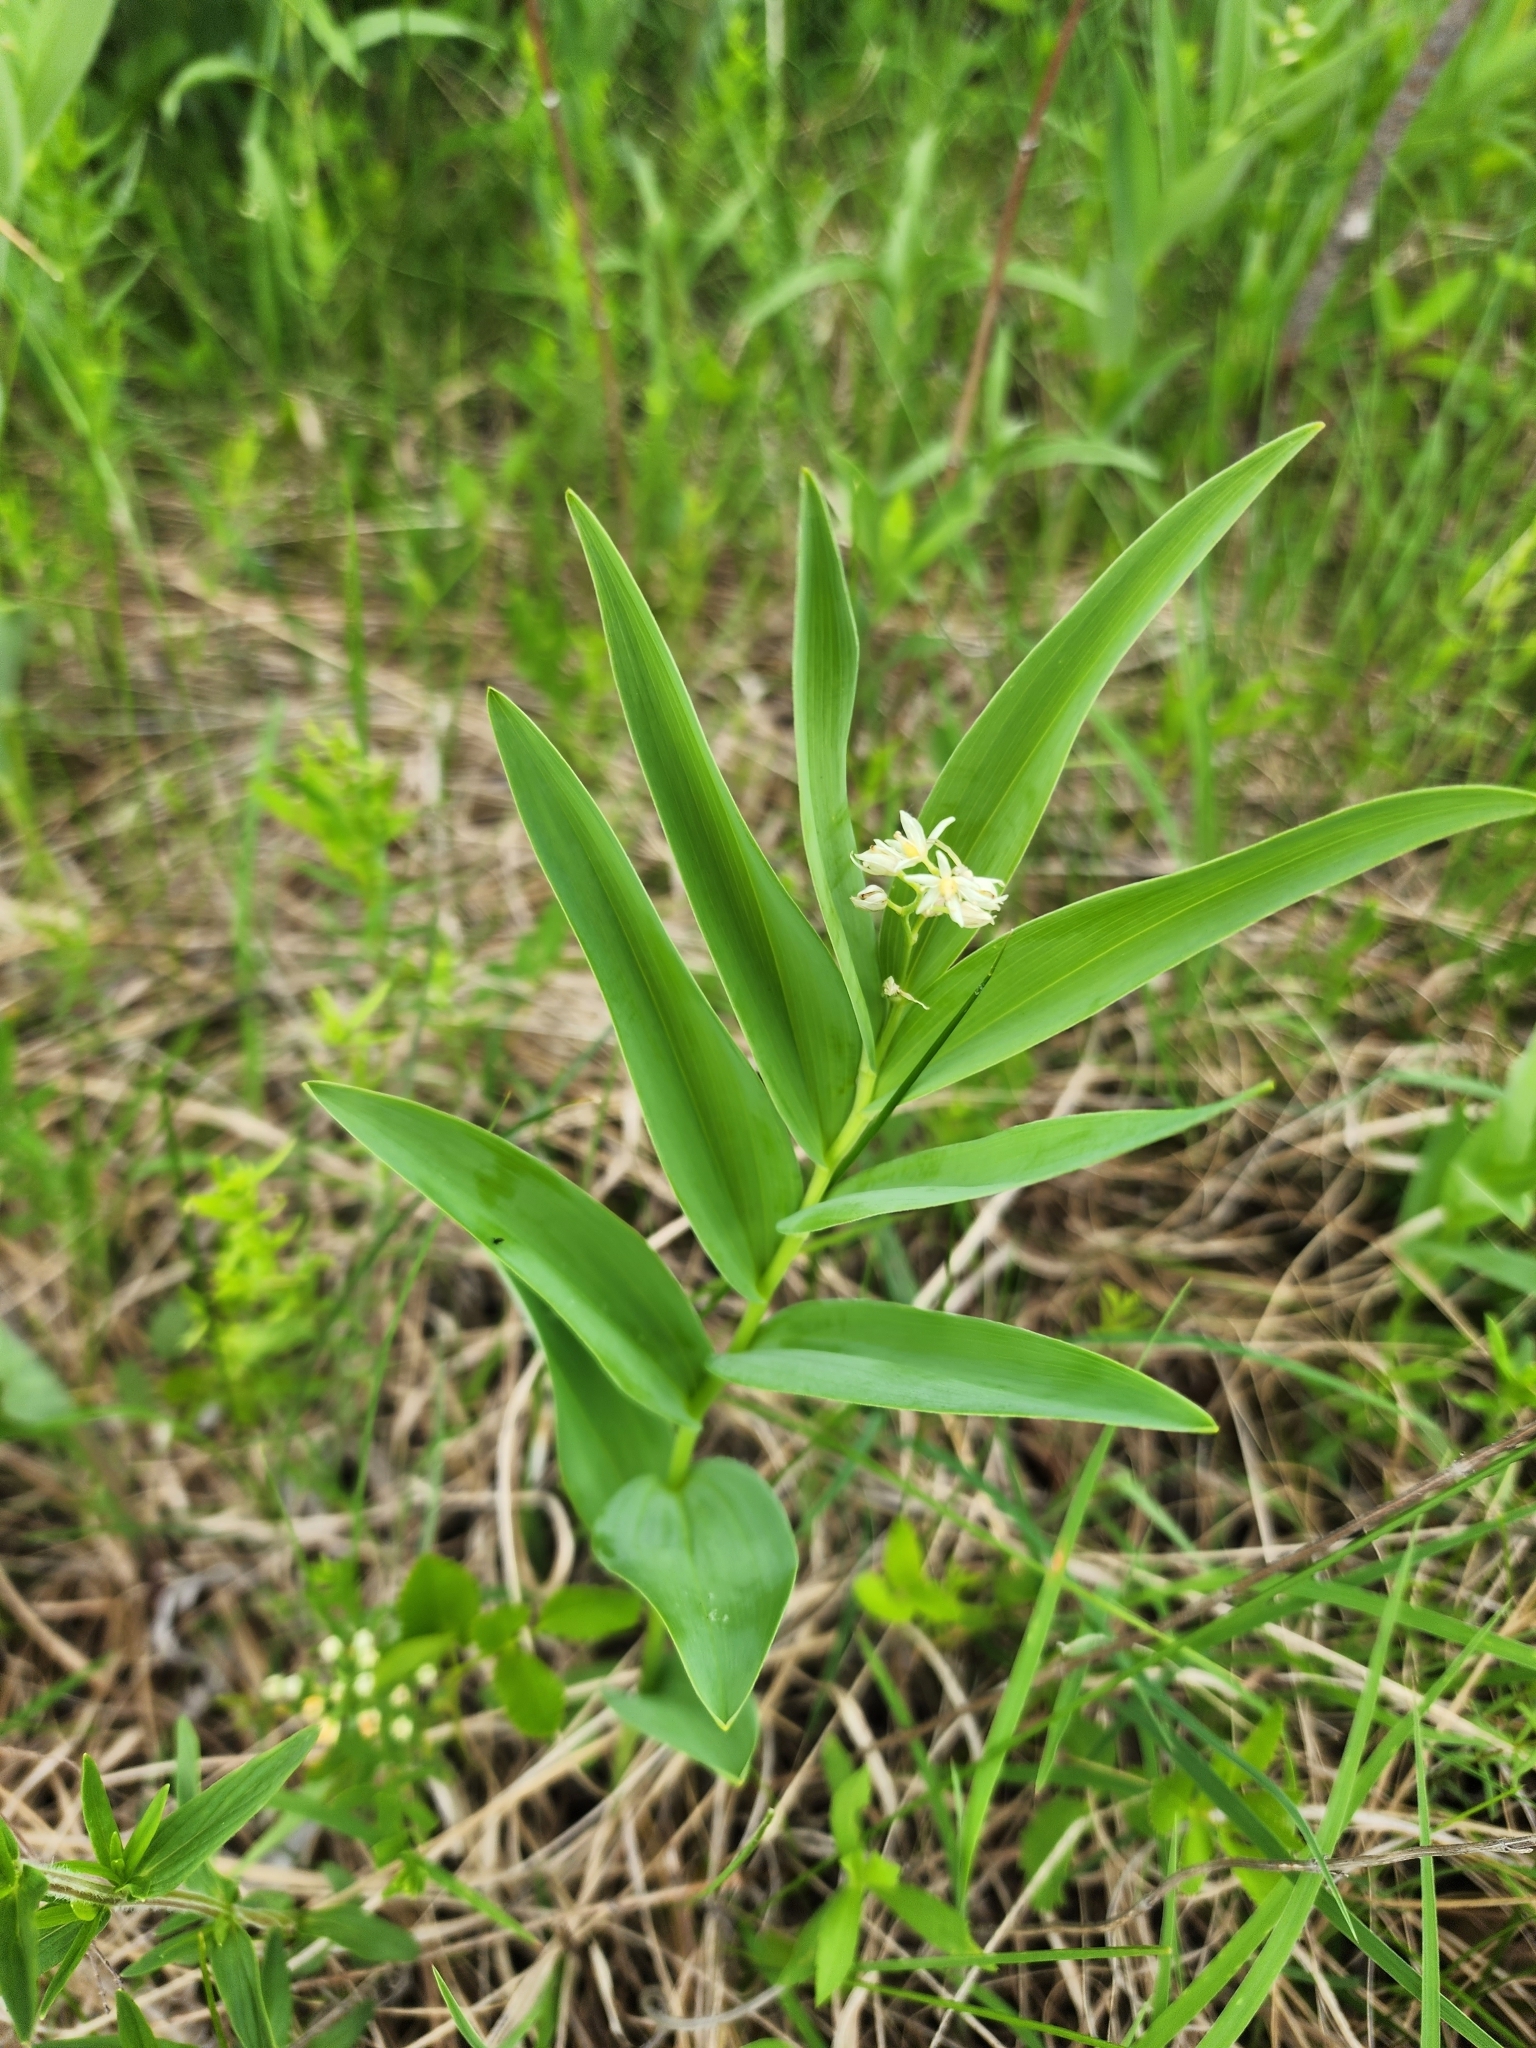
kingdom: Plantae
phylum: Tracheophyta
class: Liliopsida
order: Asparagales
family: Asparagaceae
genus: Maianthemum
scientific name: Maianthemum stellatum
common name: Little false solomon's seal
